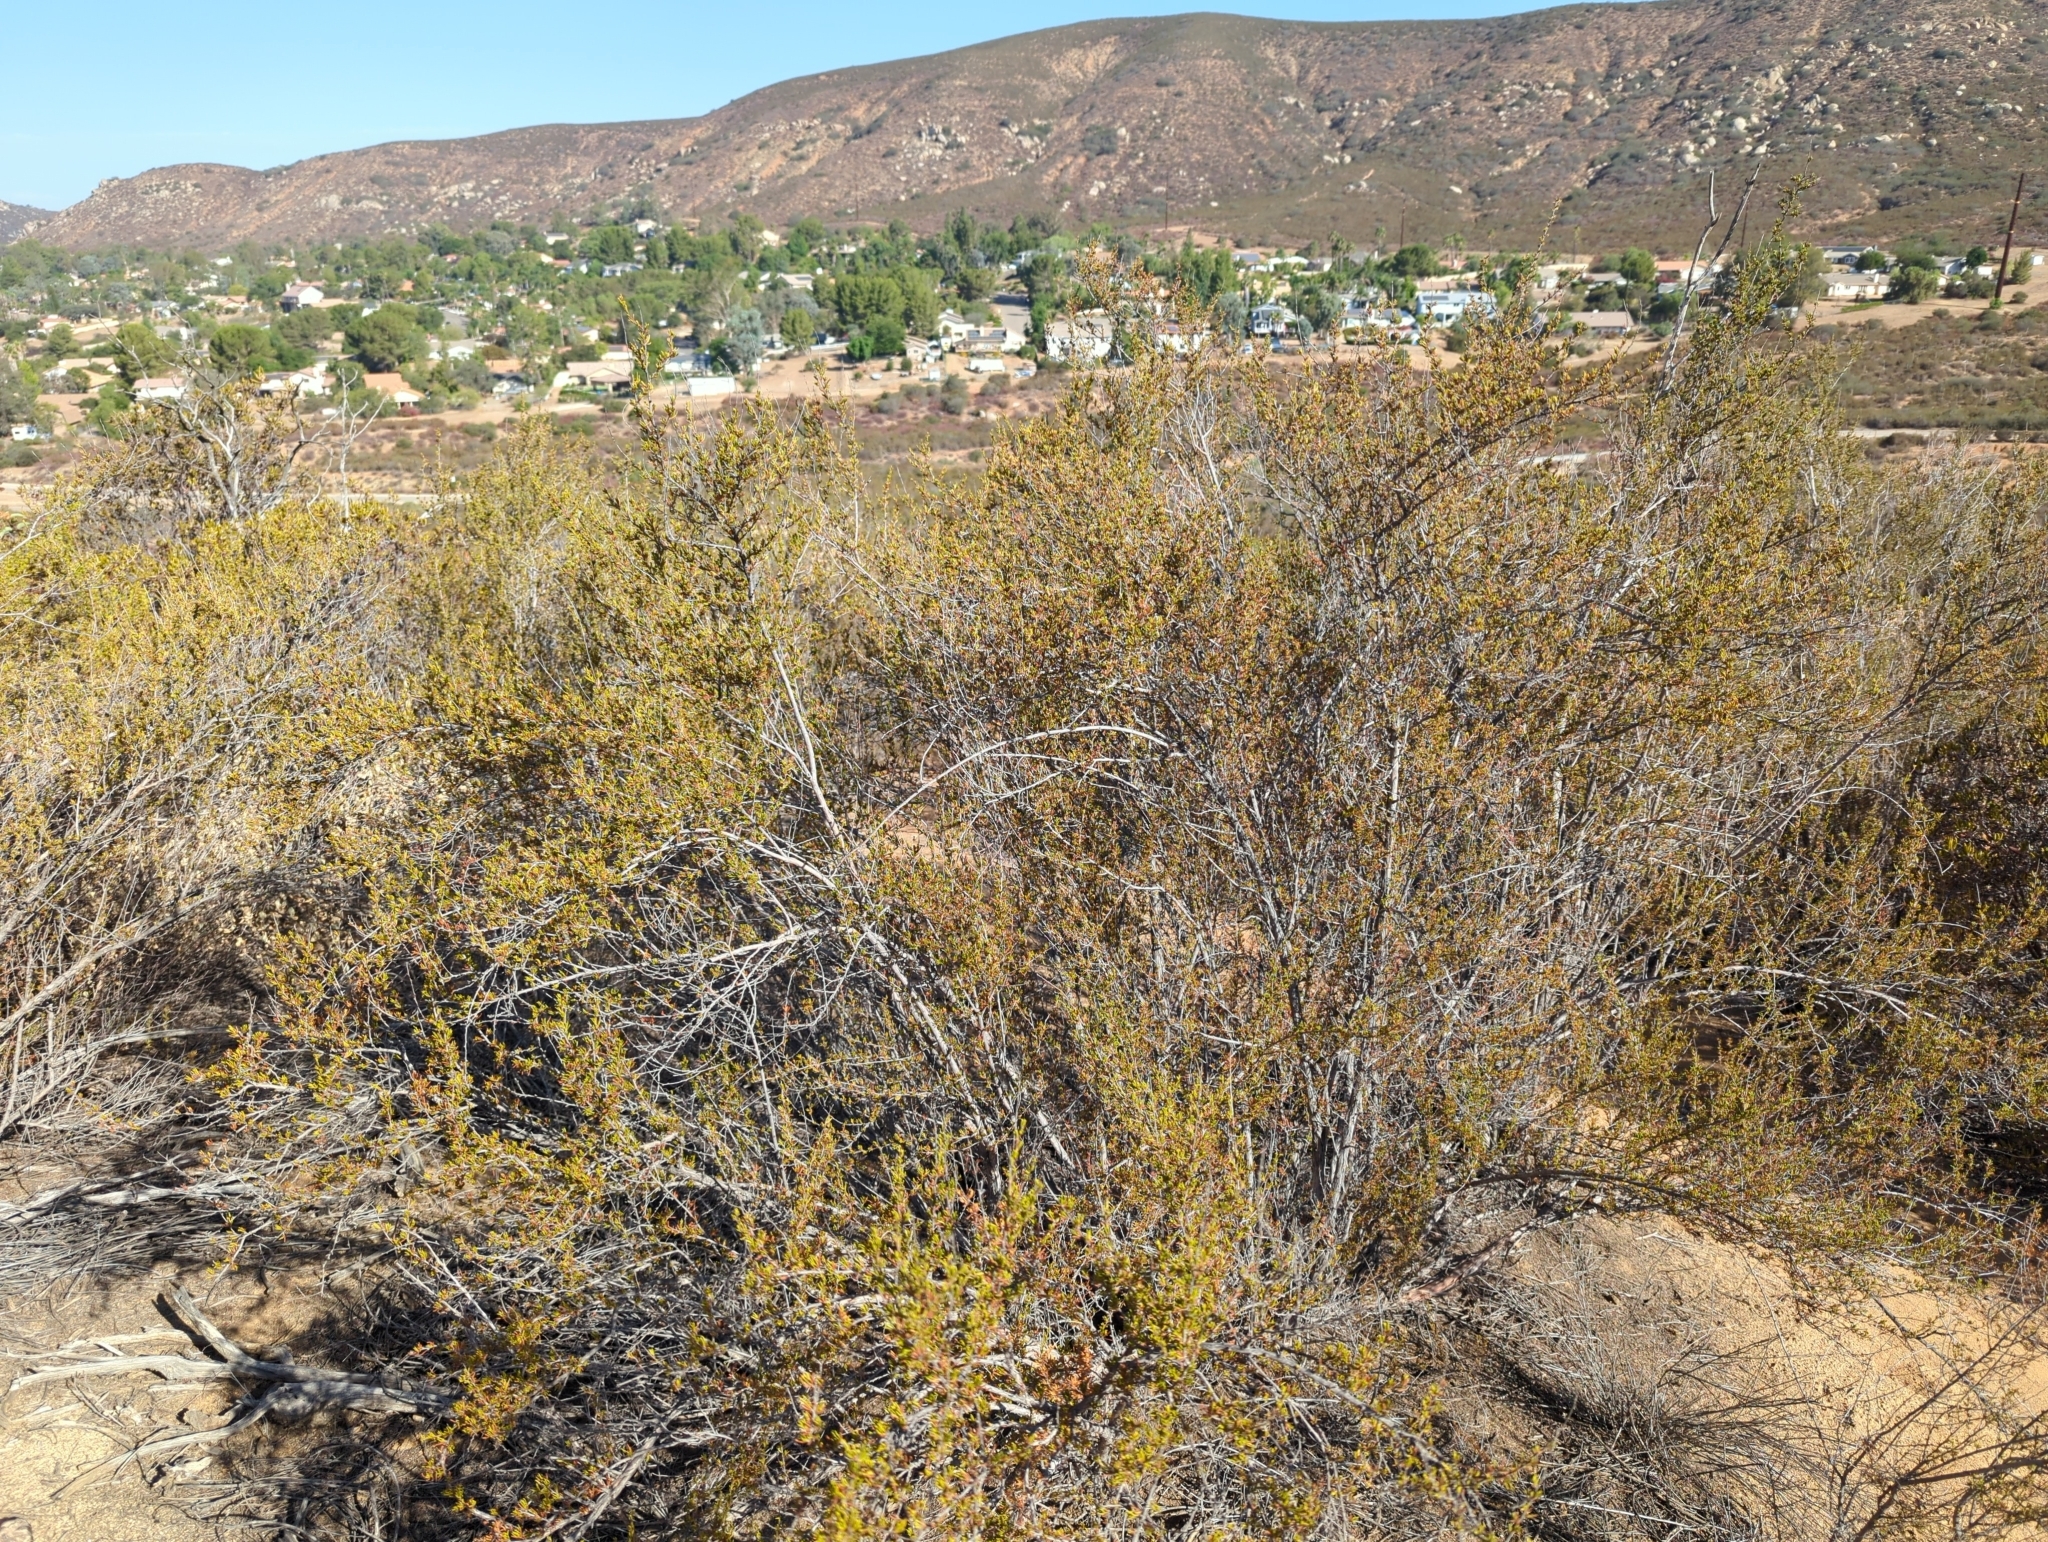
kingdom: Plantae
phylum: Tracheophyta
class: Magnoliopsida
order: Rosales
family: Rosaceae
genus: Adenostoma
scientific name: Adenostoma fasciculatum
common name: Chamise
